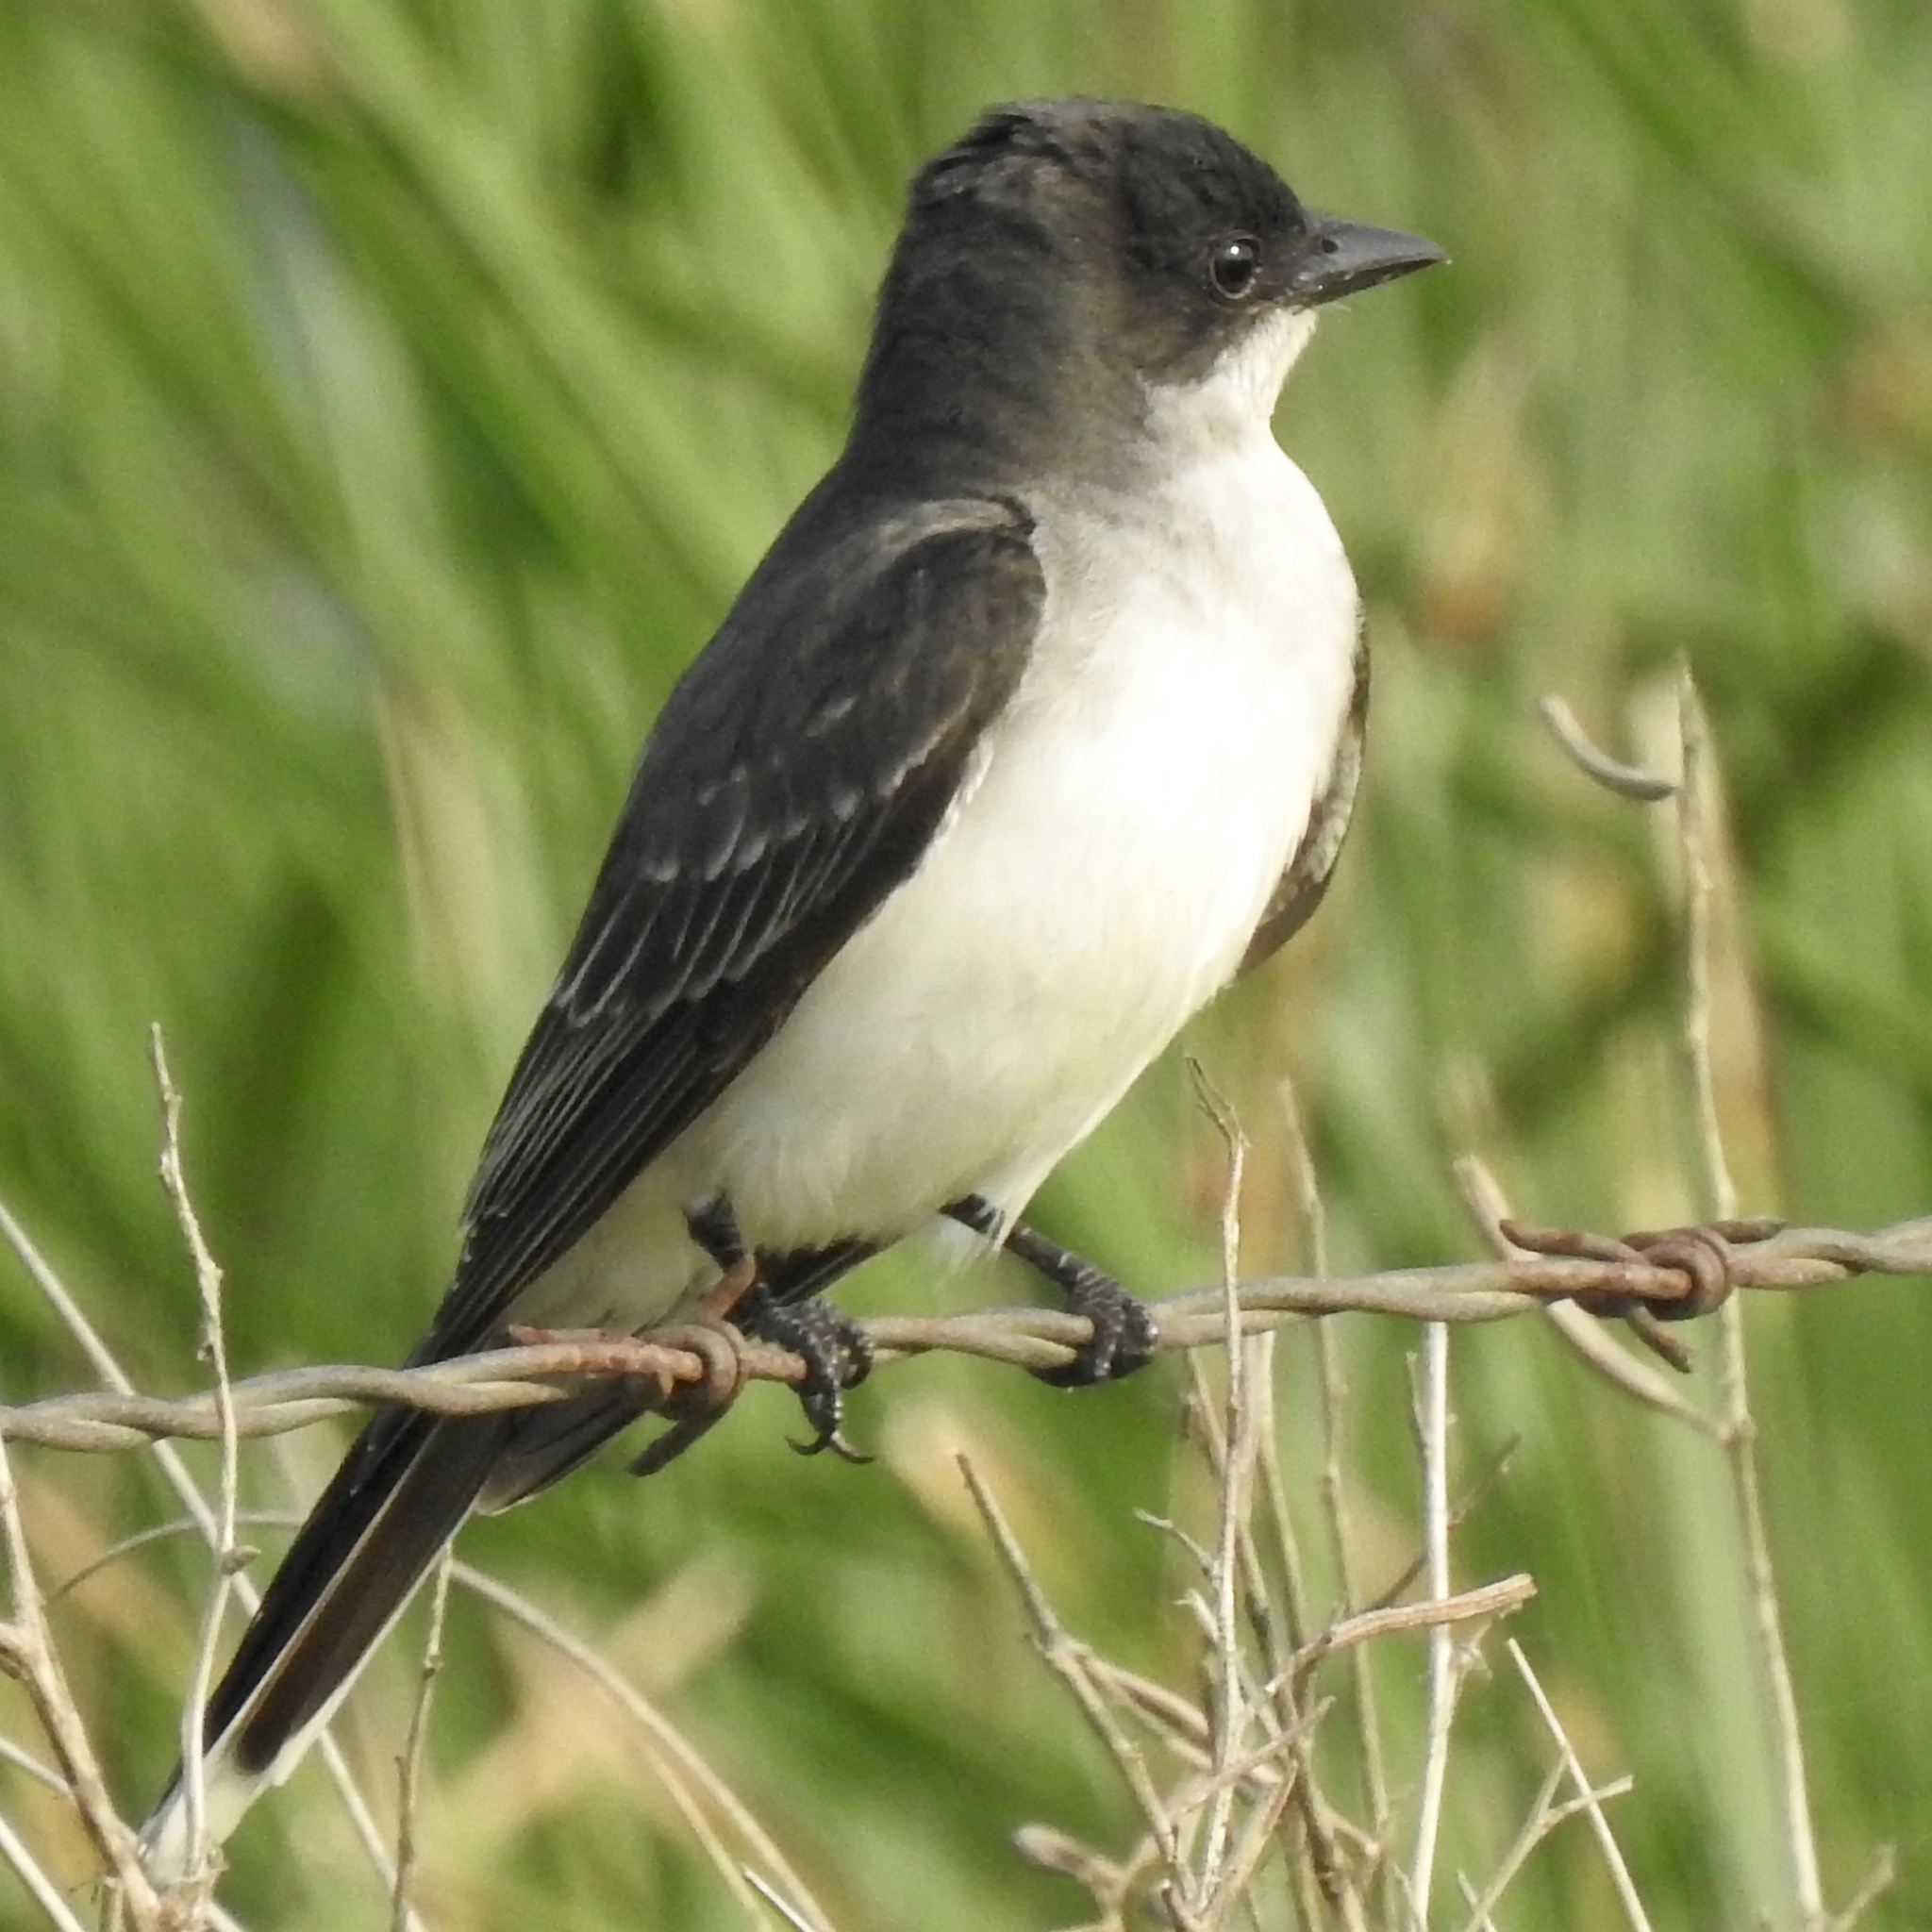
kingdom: Animalia
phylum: Chordata
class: Aves
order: Passeriformes
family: Tyrannidae
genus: Tyrannus
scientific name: Tyrannus tyrannus
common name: Eastern kingbird
